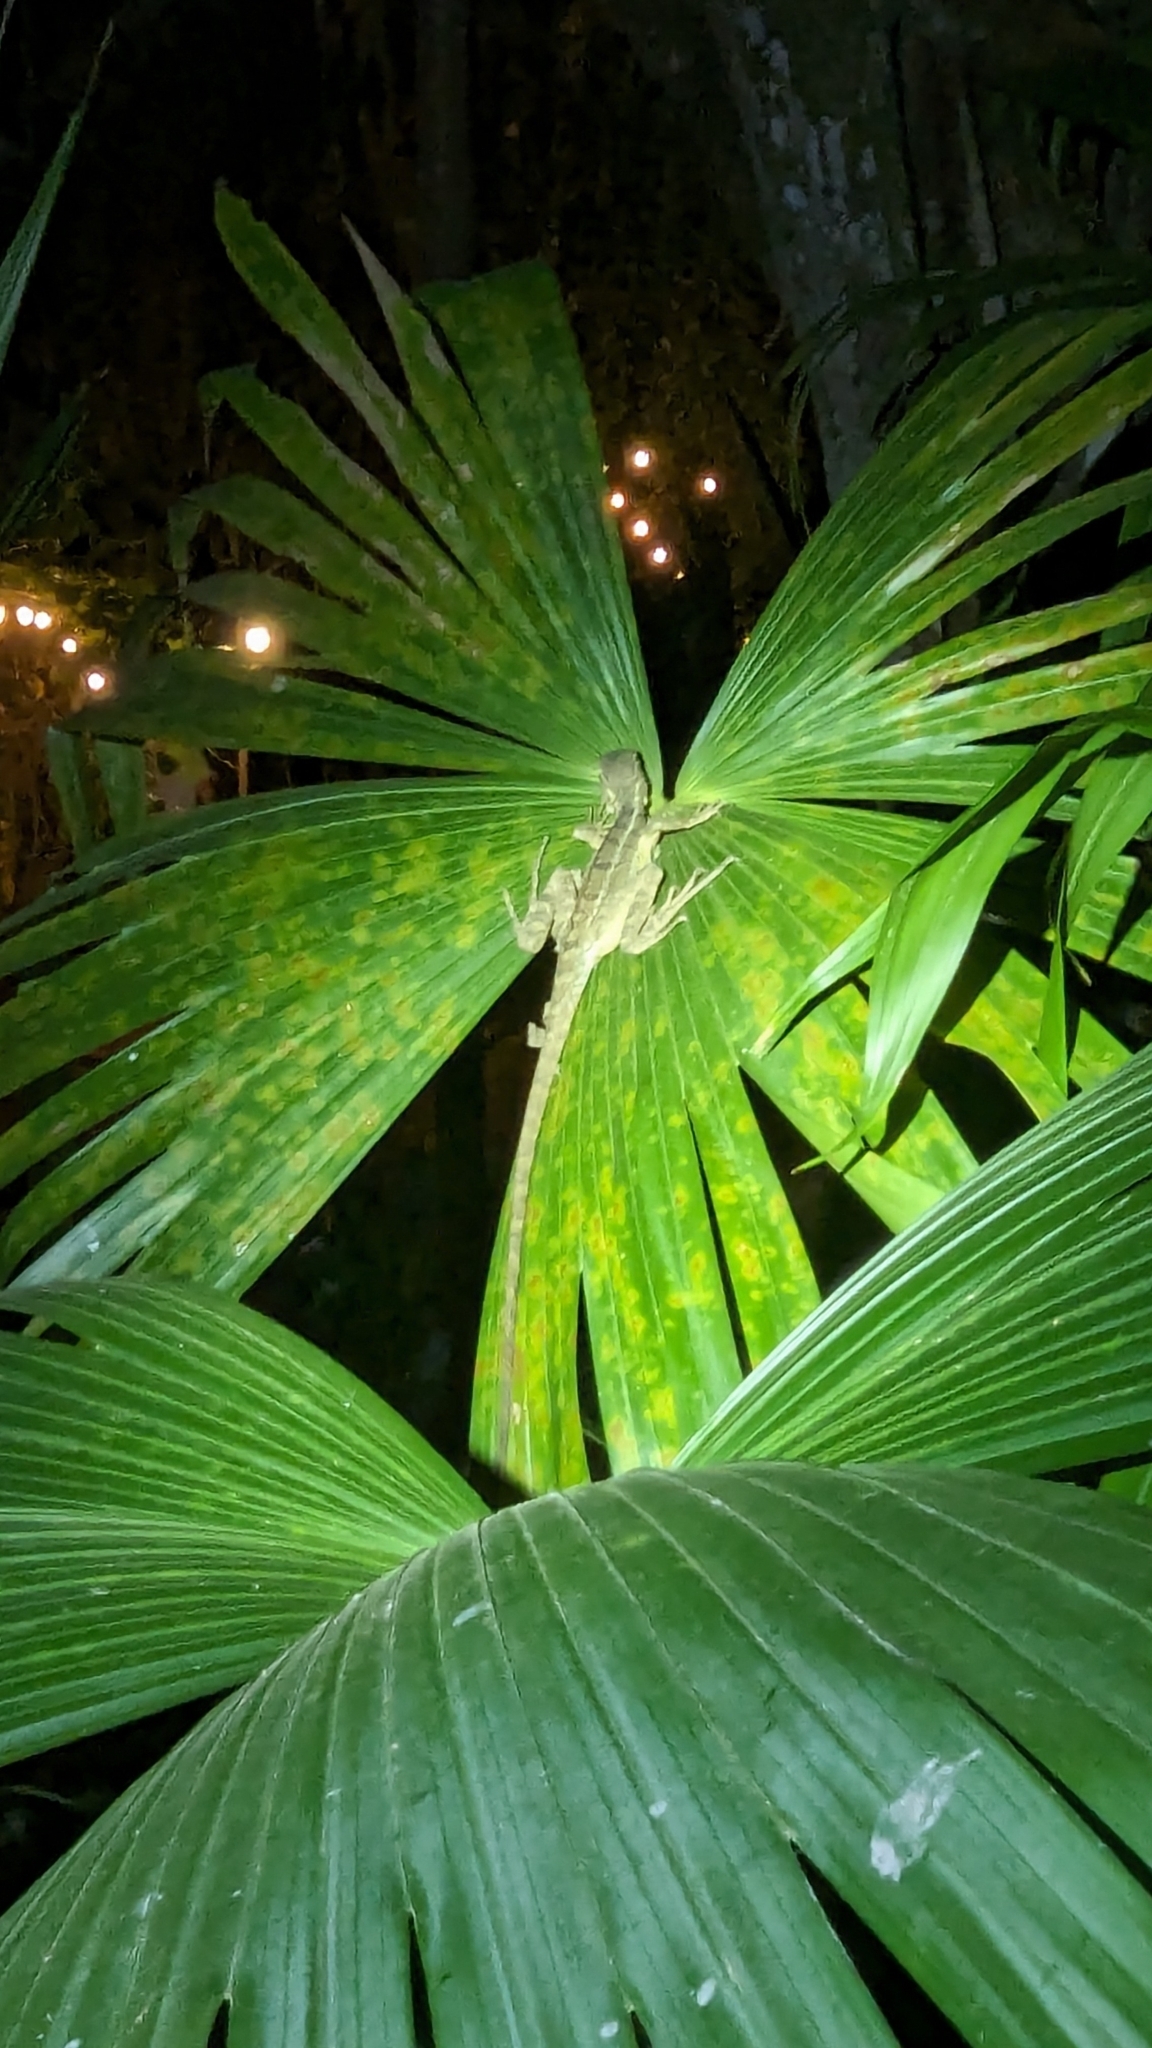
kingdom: Animalia
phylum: Chordata
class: Squamata
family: Corytophanidae
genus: Basiliscus
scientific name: Basiliscus basiliscus
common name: Common basilisk
